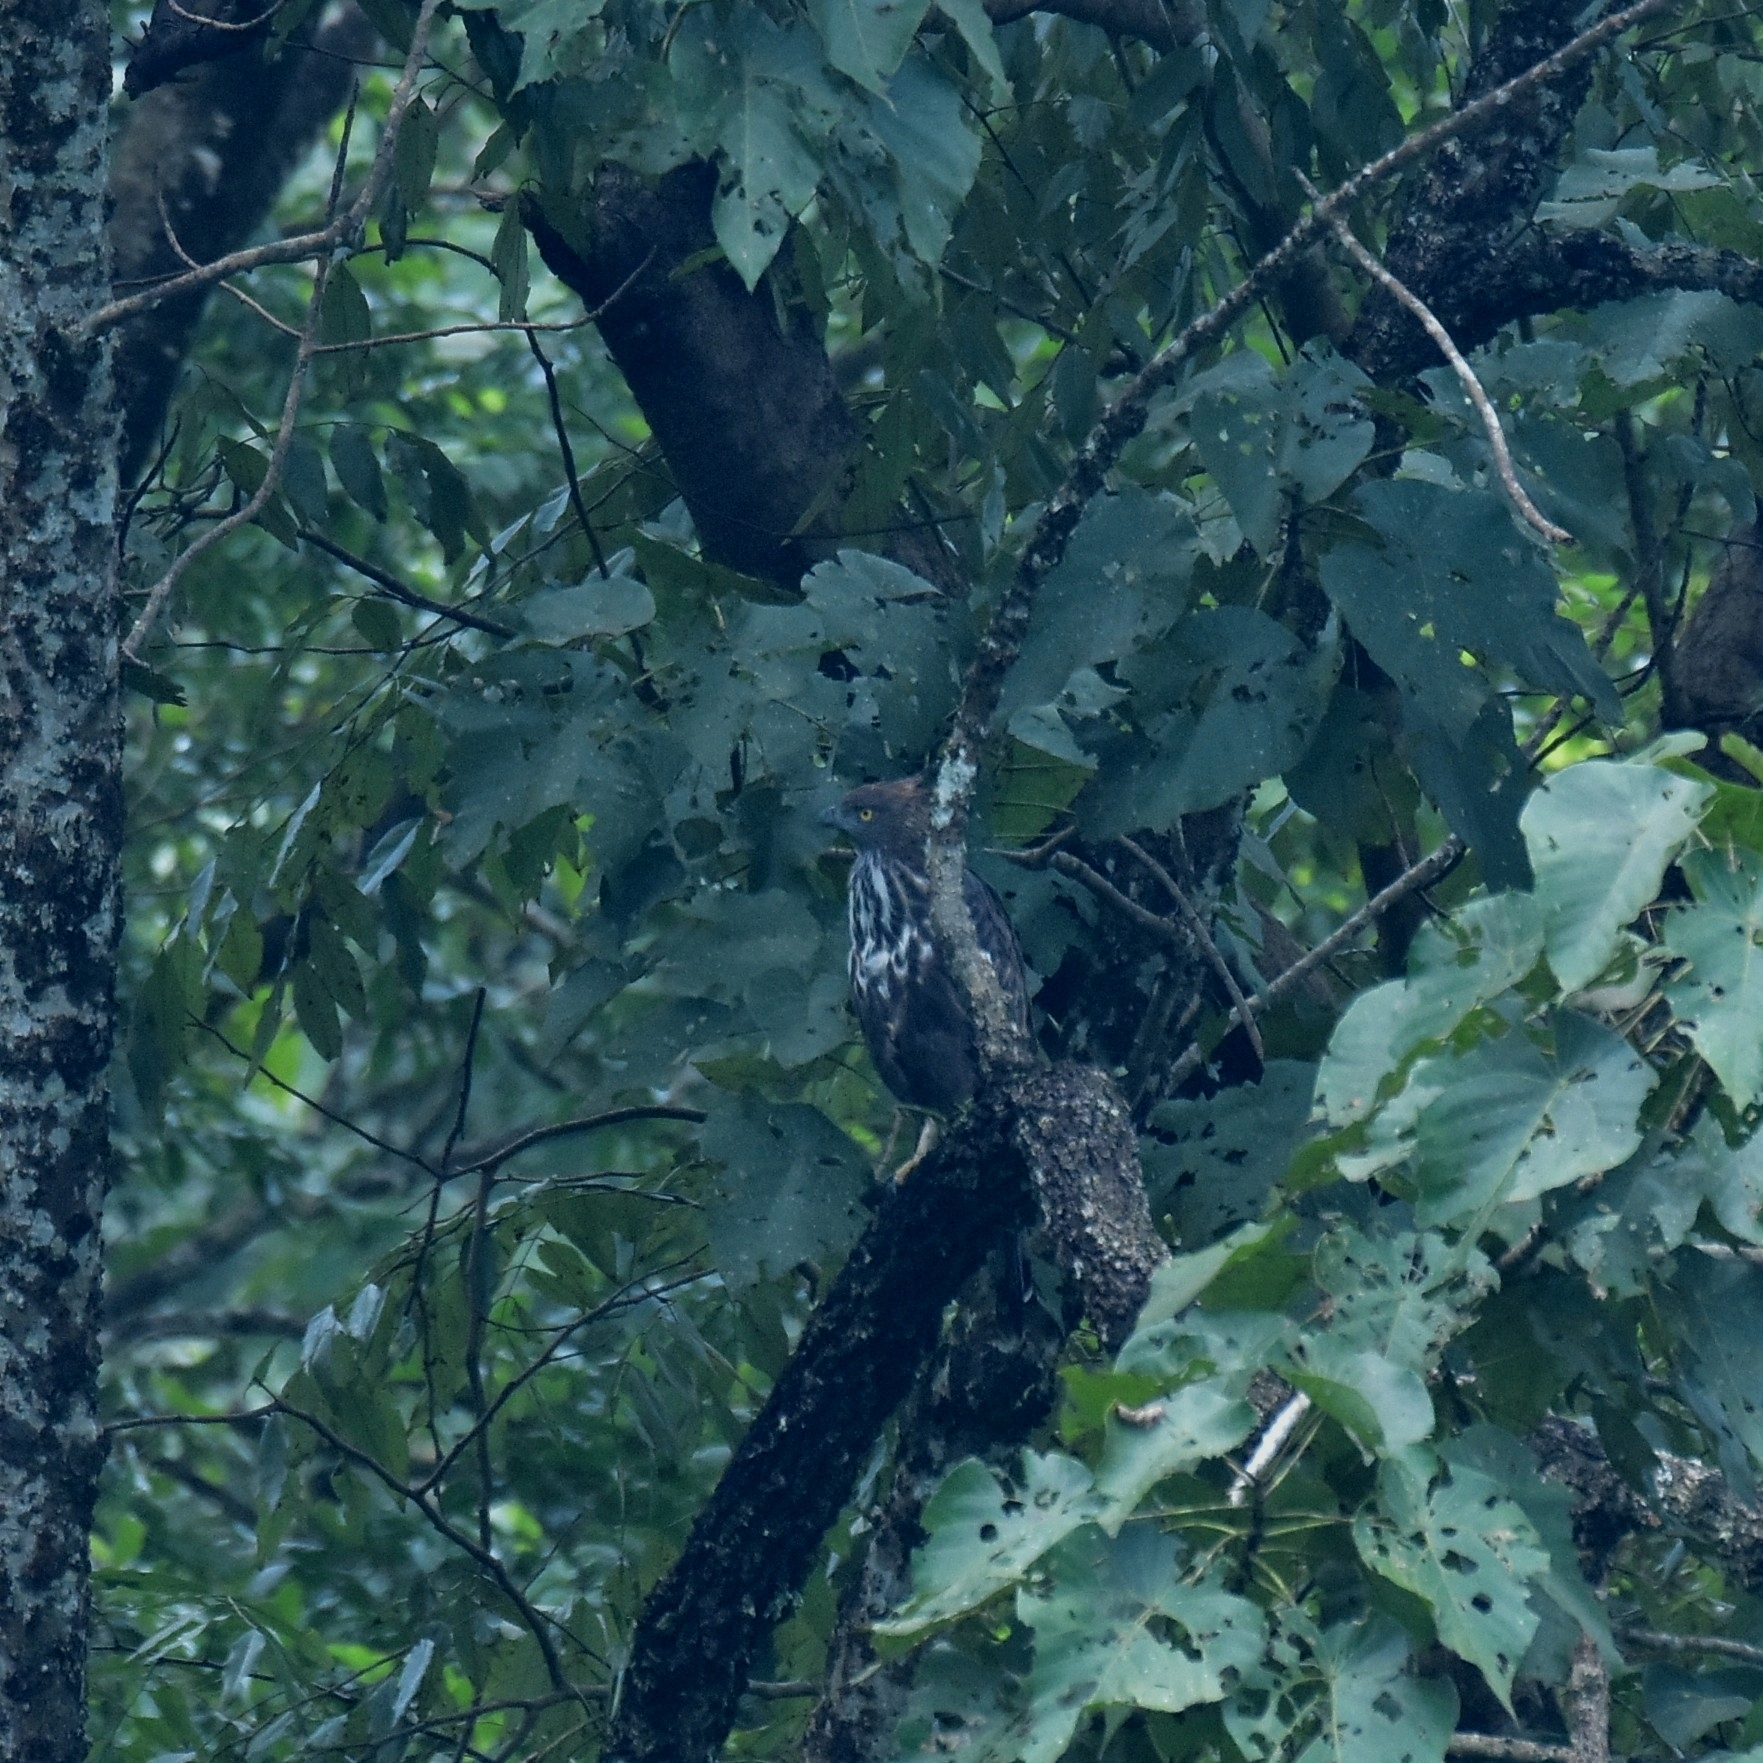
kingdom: Animalia
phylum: Chordata
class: Aves
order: Accipitriformes
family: Accipitridae
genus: Nisaetus
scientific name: Nisaetus cirrhatus
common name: Changeable hawk-eagle
